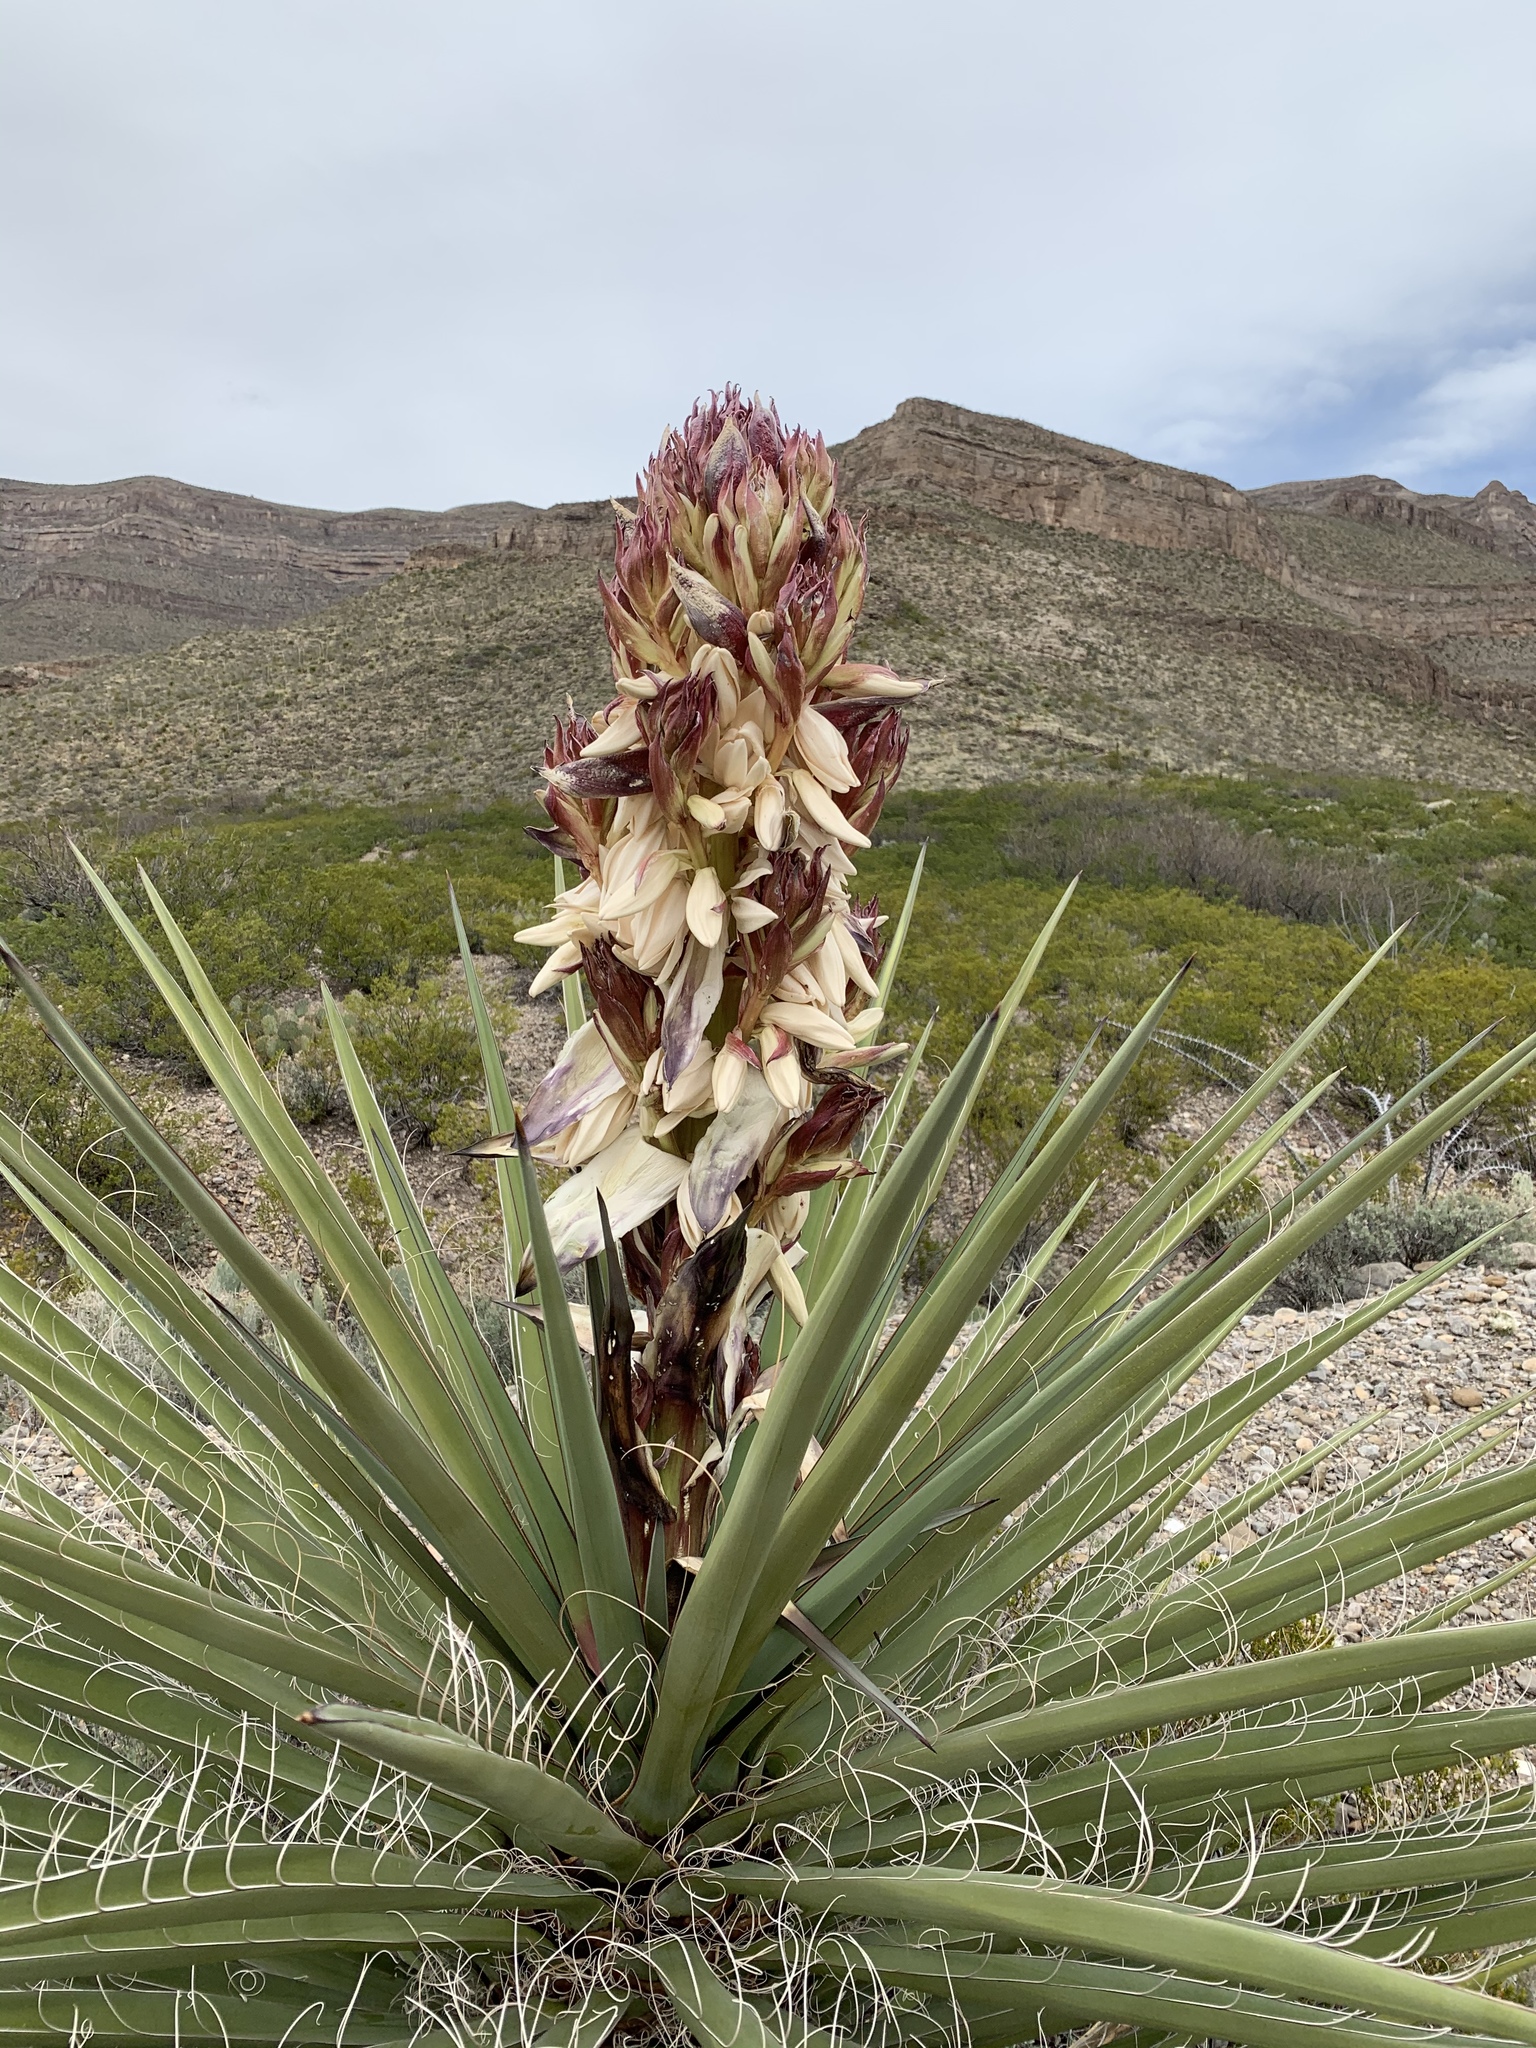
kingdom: Plantae
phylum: Tracheophyta
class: Liliopsida
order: Asparagales
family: Asparagaceae
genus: Yucca
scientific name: Yucca treculiana
